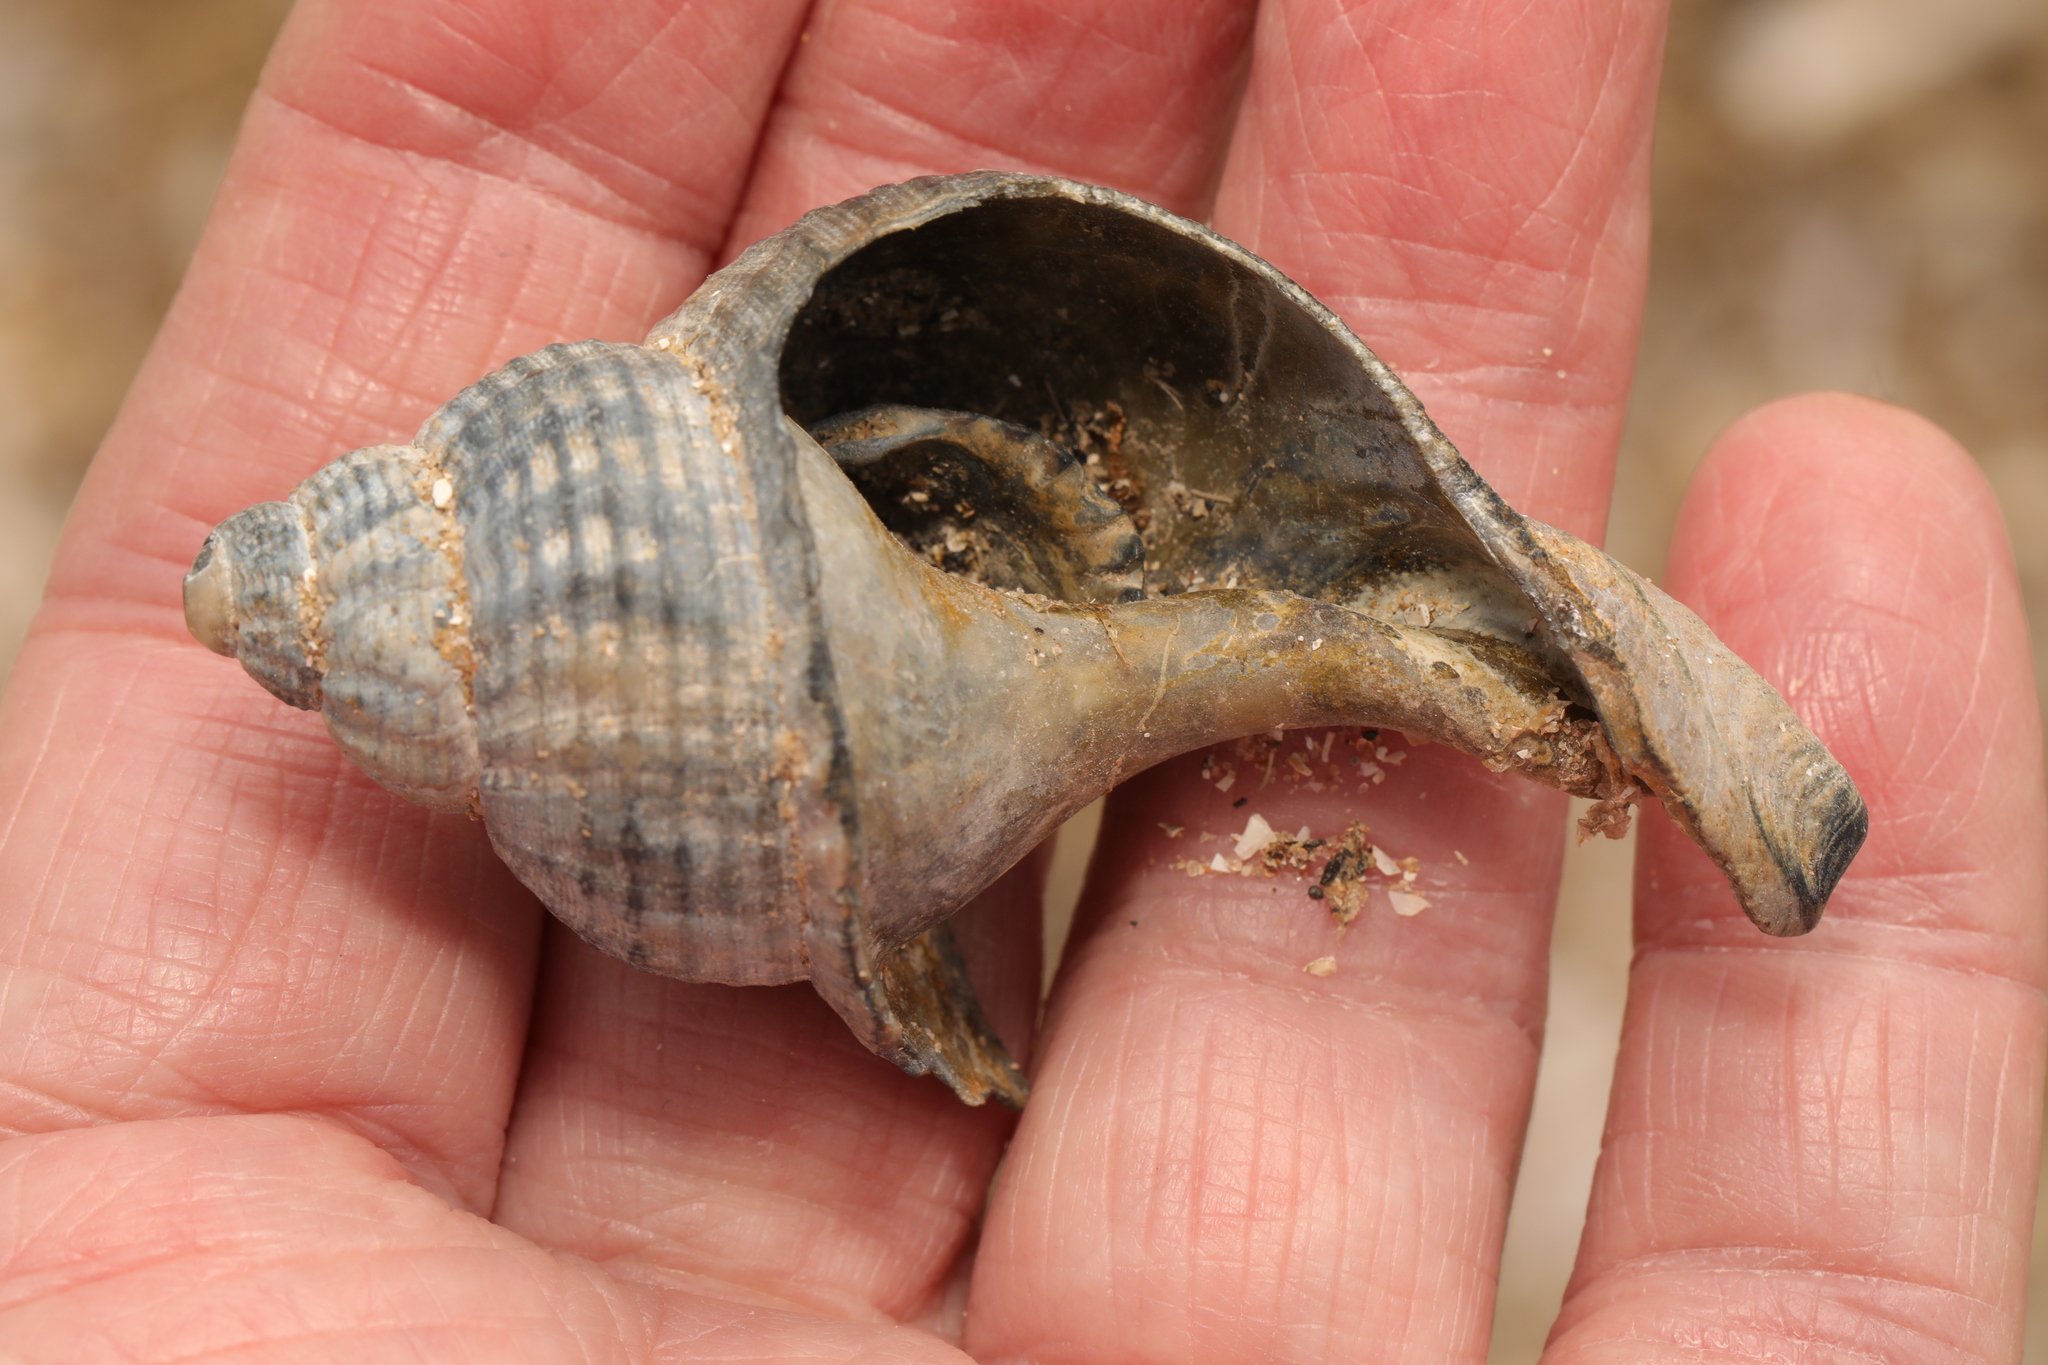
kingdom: Animalia
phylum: Mollusca
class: Gastropoda
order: Neogastropoda
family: Buccinidae
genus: Buccinum
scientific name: Buccinum undatum
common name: Common whelk
